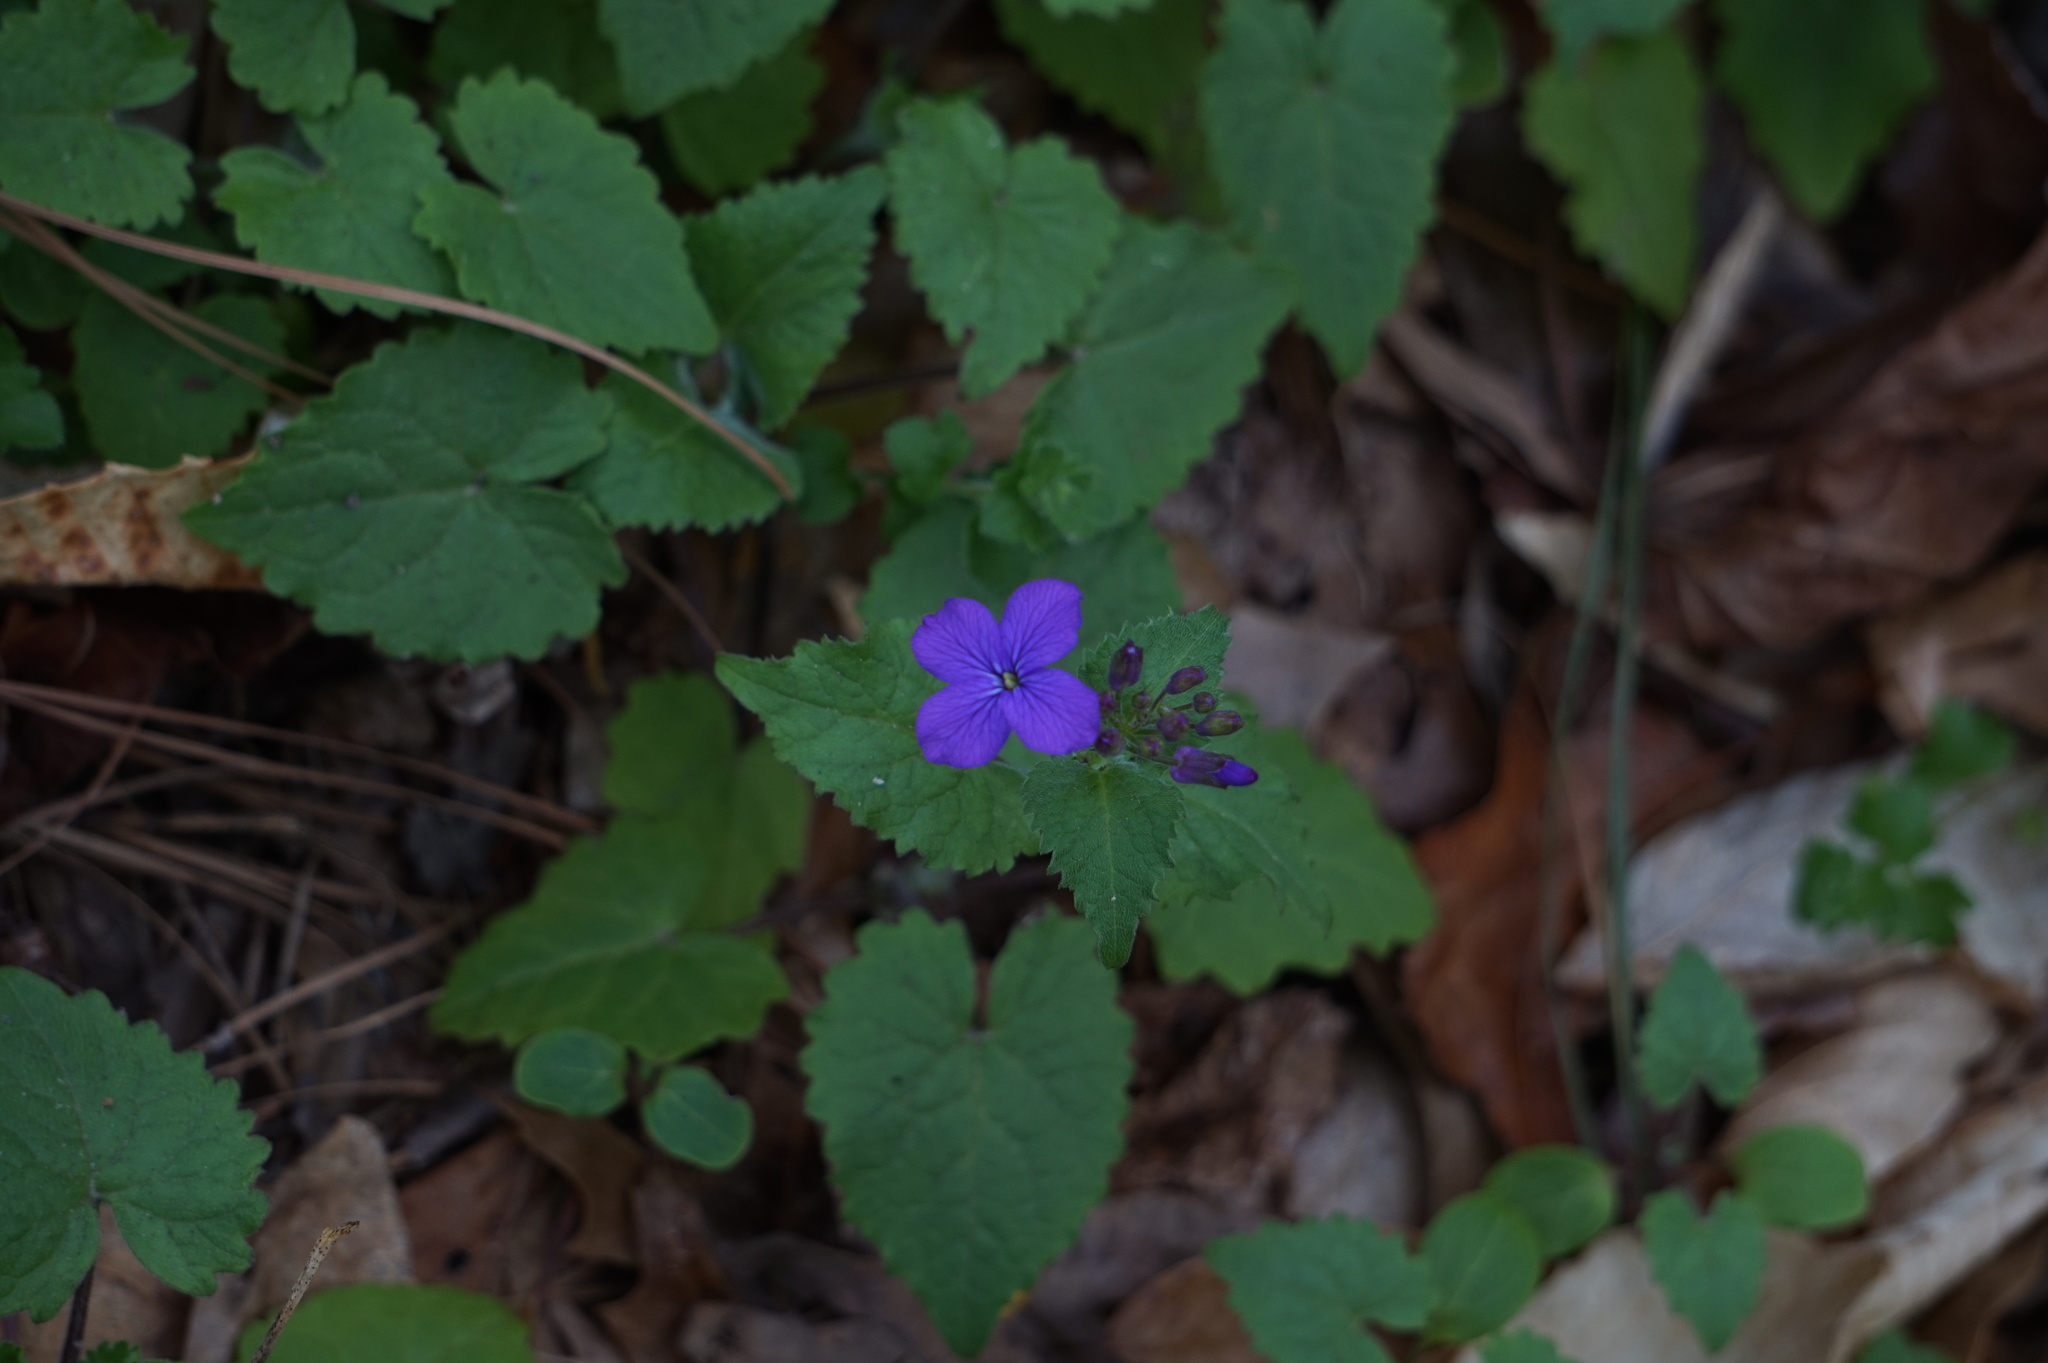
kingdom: Plantae
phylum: Tracheophyta
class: Magnoliopsida
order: Brassicales
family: Brassicaceae
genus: Lunaria
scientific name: Lunaria annua
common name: Honesty
